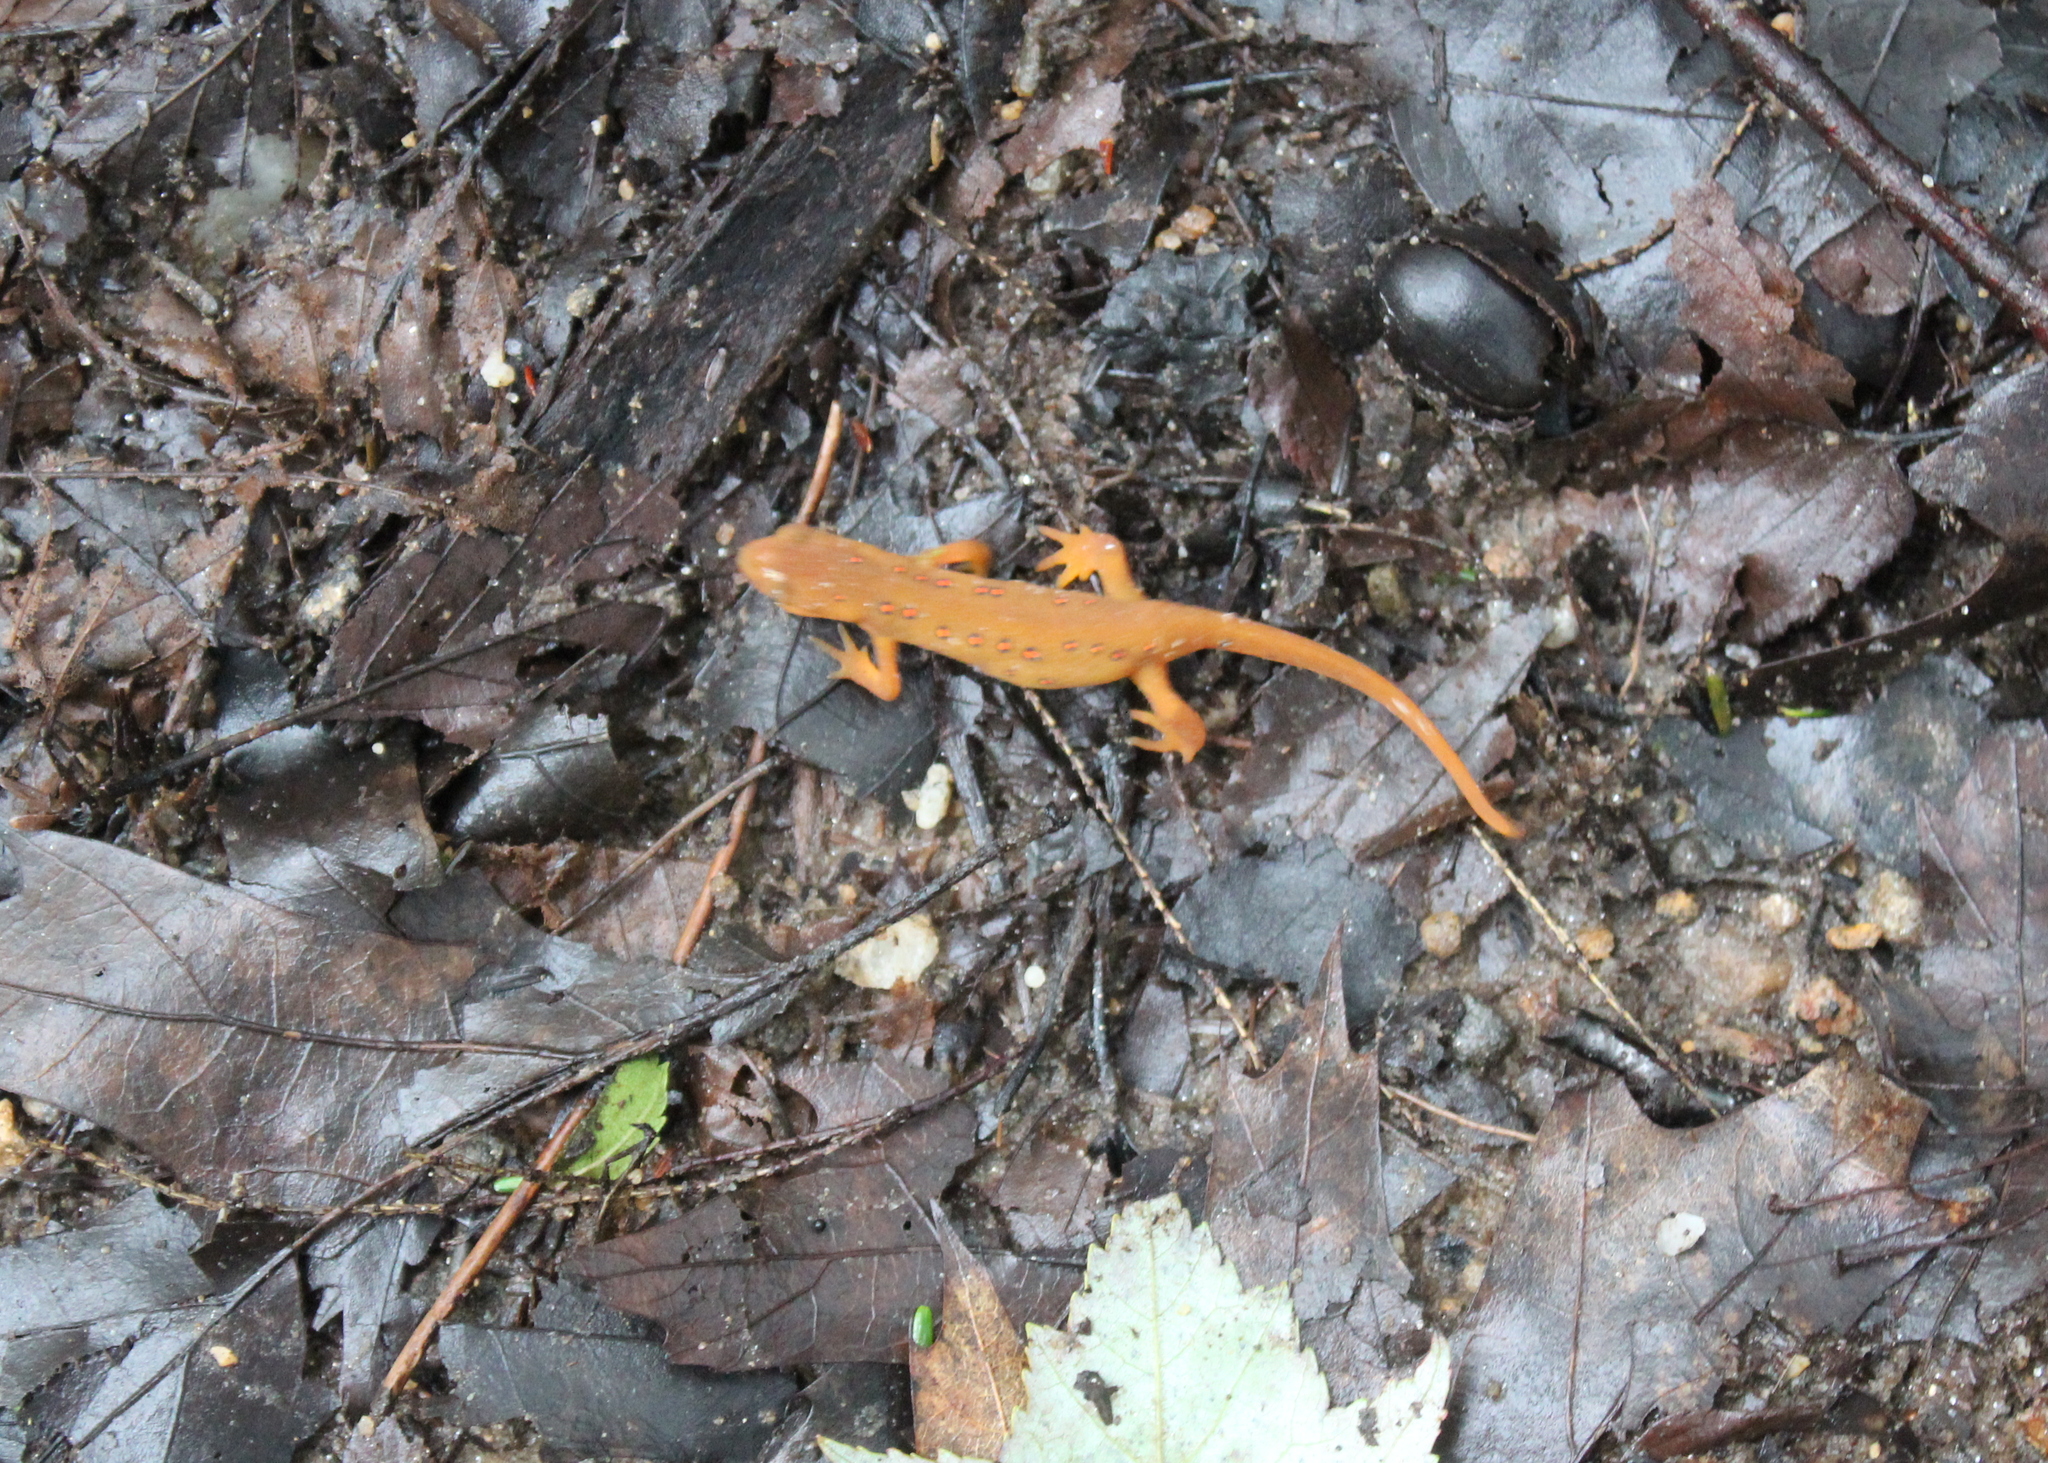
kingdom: Animalia
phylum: Chordata
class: Amphibia
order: Caudata
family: Salamandridae
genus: Notophthalmus
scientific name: Notophthalmus viridescens
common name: Eastern newt
